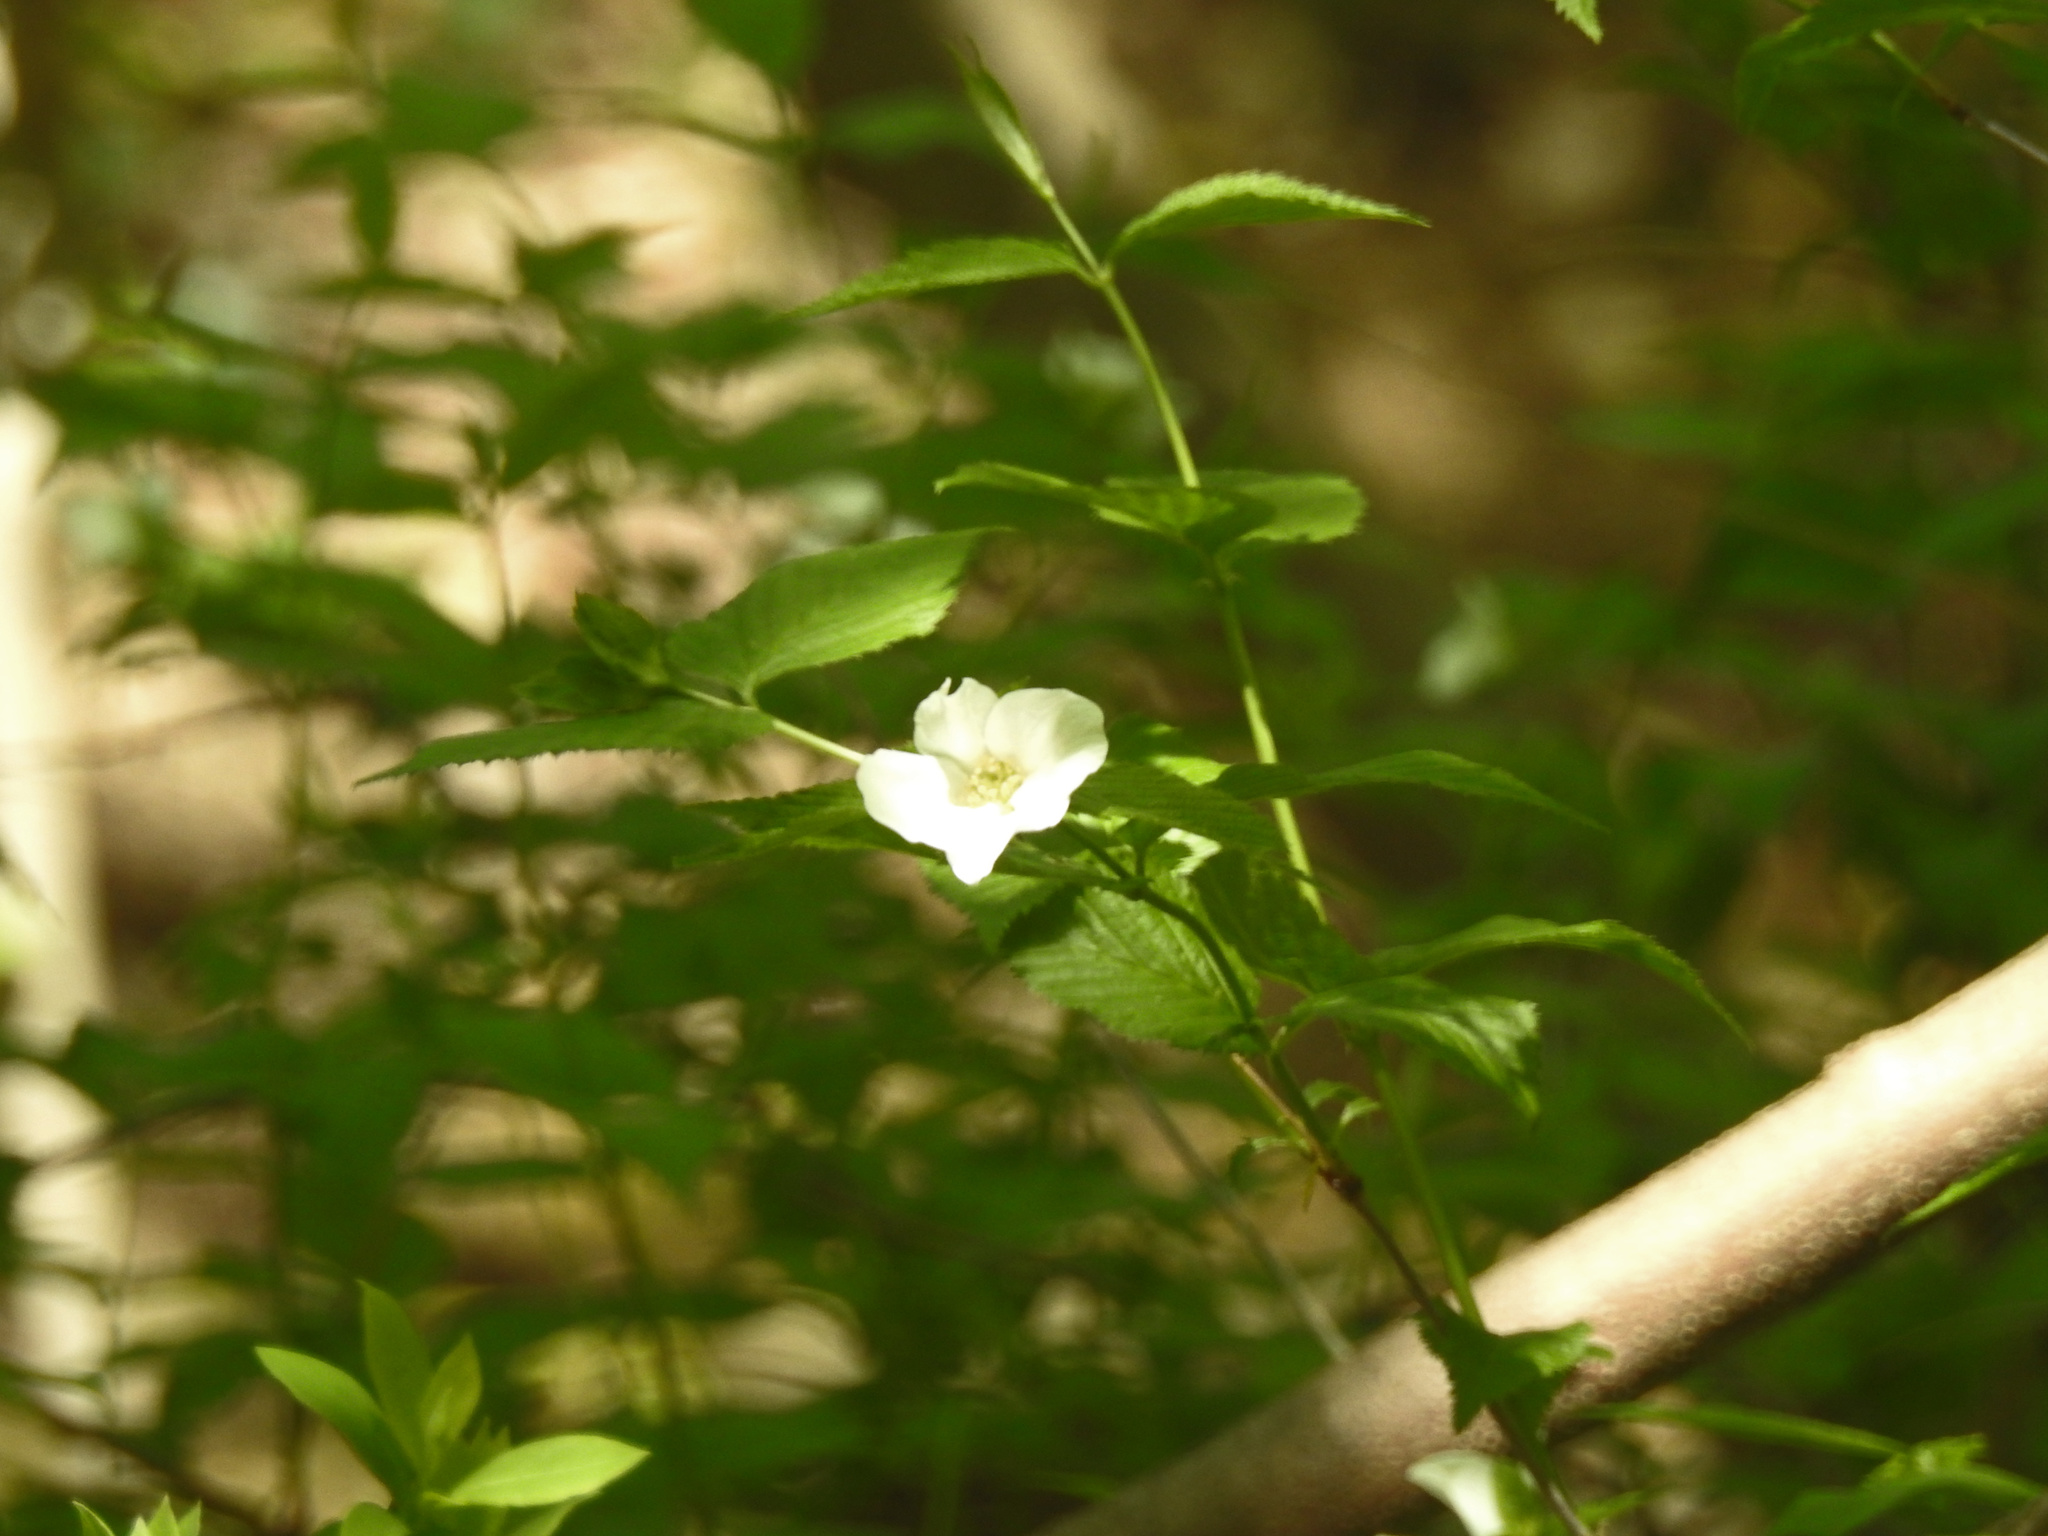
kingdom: Plantae
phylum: Tracheophyta
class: Magnoliopsida
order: Rosales
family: Rosaceae
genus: Rhodotypos
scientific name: Rhodotypos scandens
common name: Jetbead
